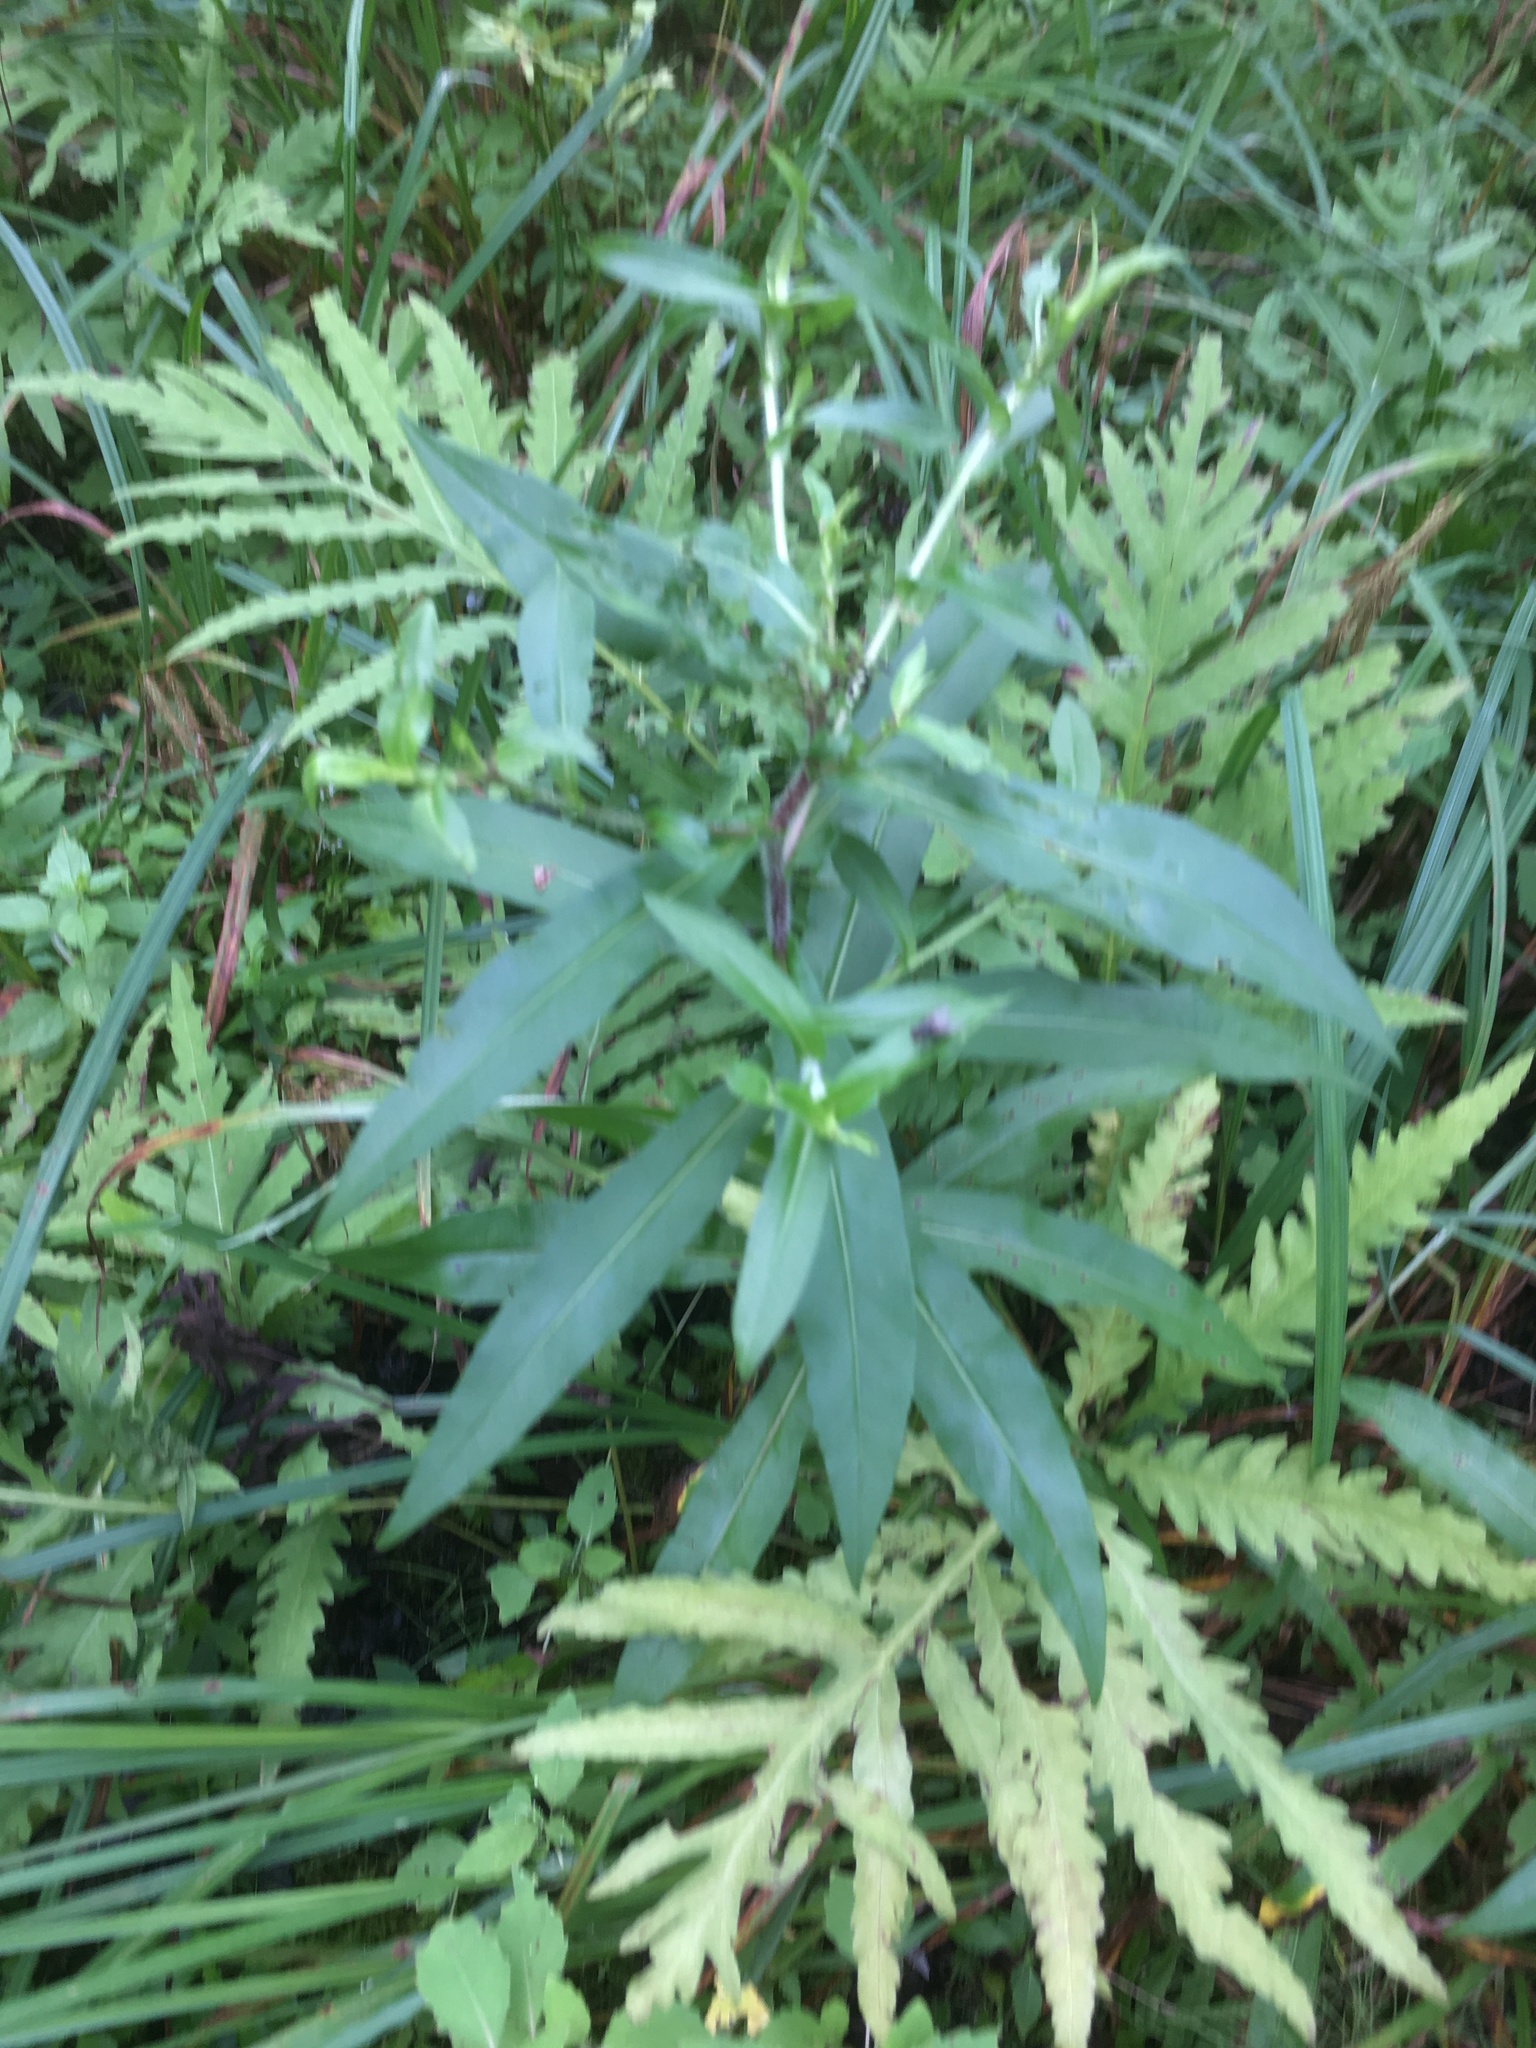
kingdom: Plantae
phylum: Tracheophyta
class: Magnoliopsida
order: Asterales
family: Asteraceae
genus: Symphyotrichum
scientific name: Symphyotrichum puniceum
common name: Bog aster
